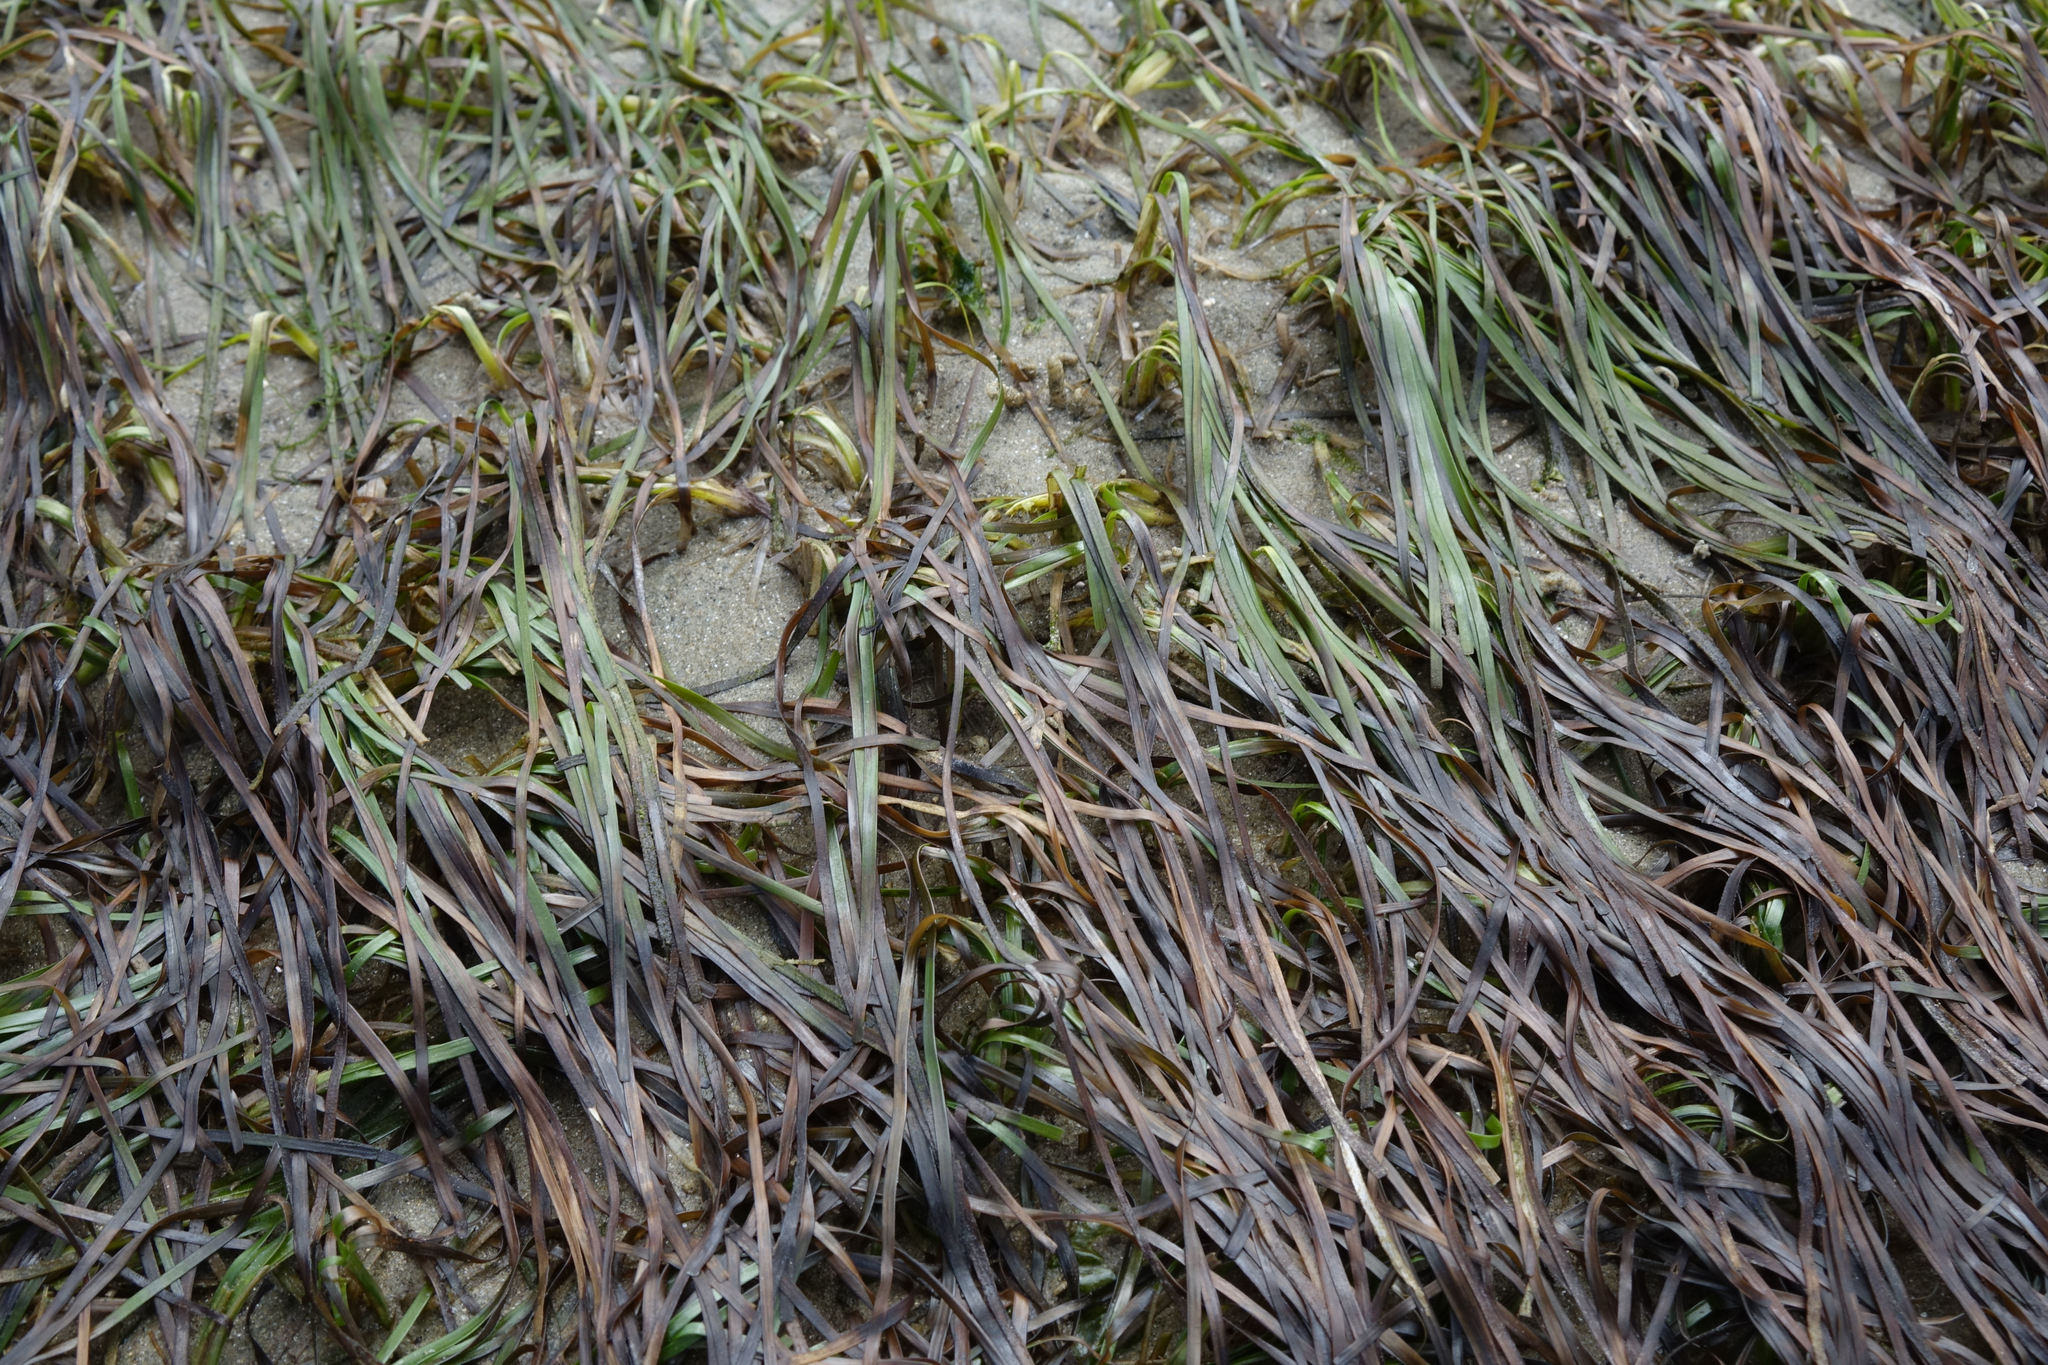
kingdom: Plantae
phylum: Tracheophyta
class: Liliopsida
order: Alismatales
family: Zosteraceae
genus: Zostera
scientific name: Zostera novazelandica
